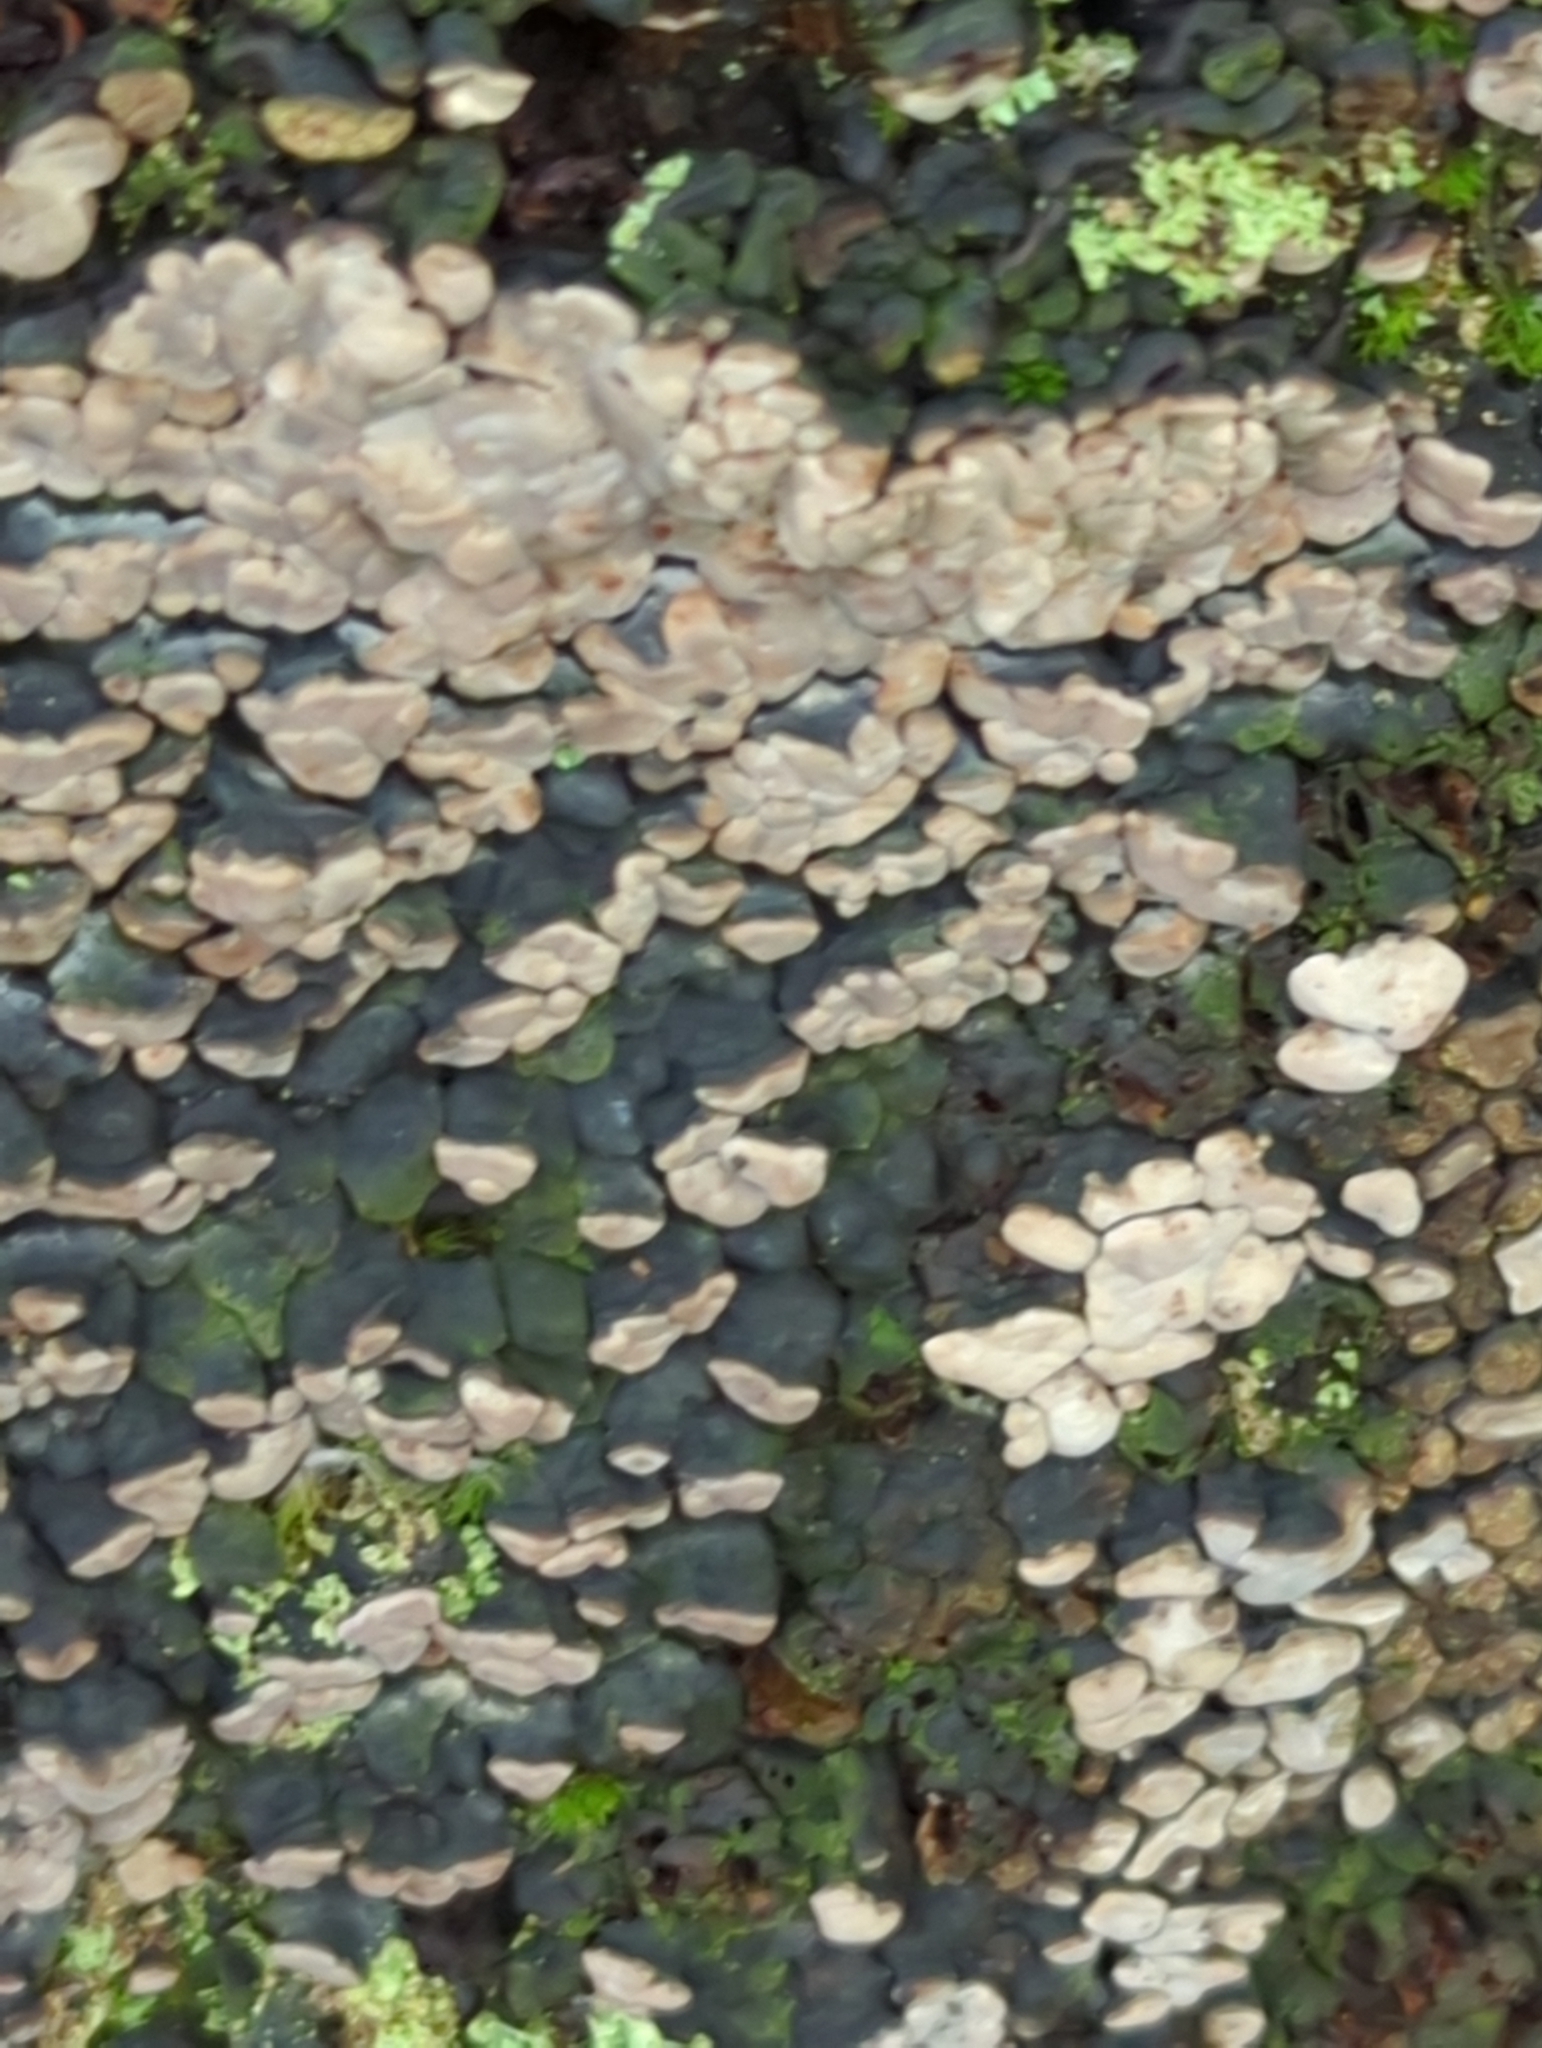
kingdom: Fungi
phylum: Basidiomycota
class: Agaricomycetes
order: Russulales
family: Stereaceae
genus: Xylobolus
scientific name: Xylobolus frustulatus
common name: Ceramic parchment
